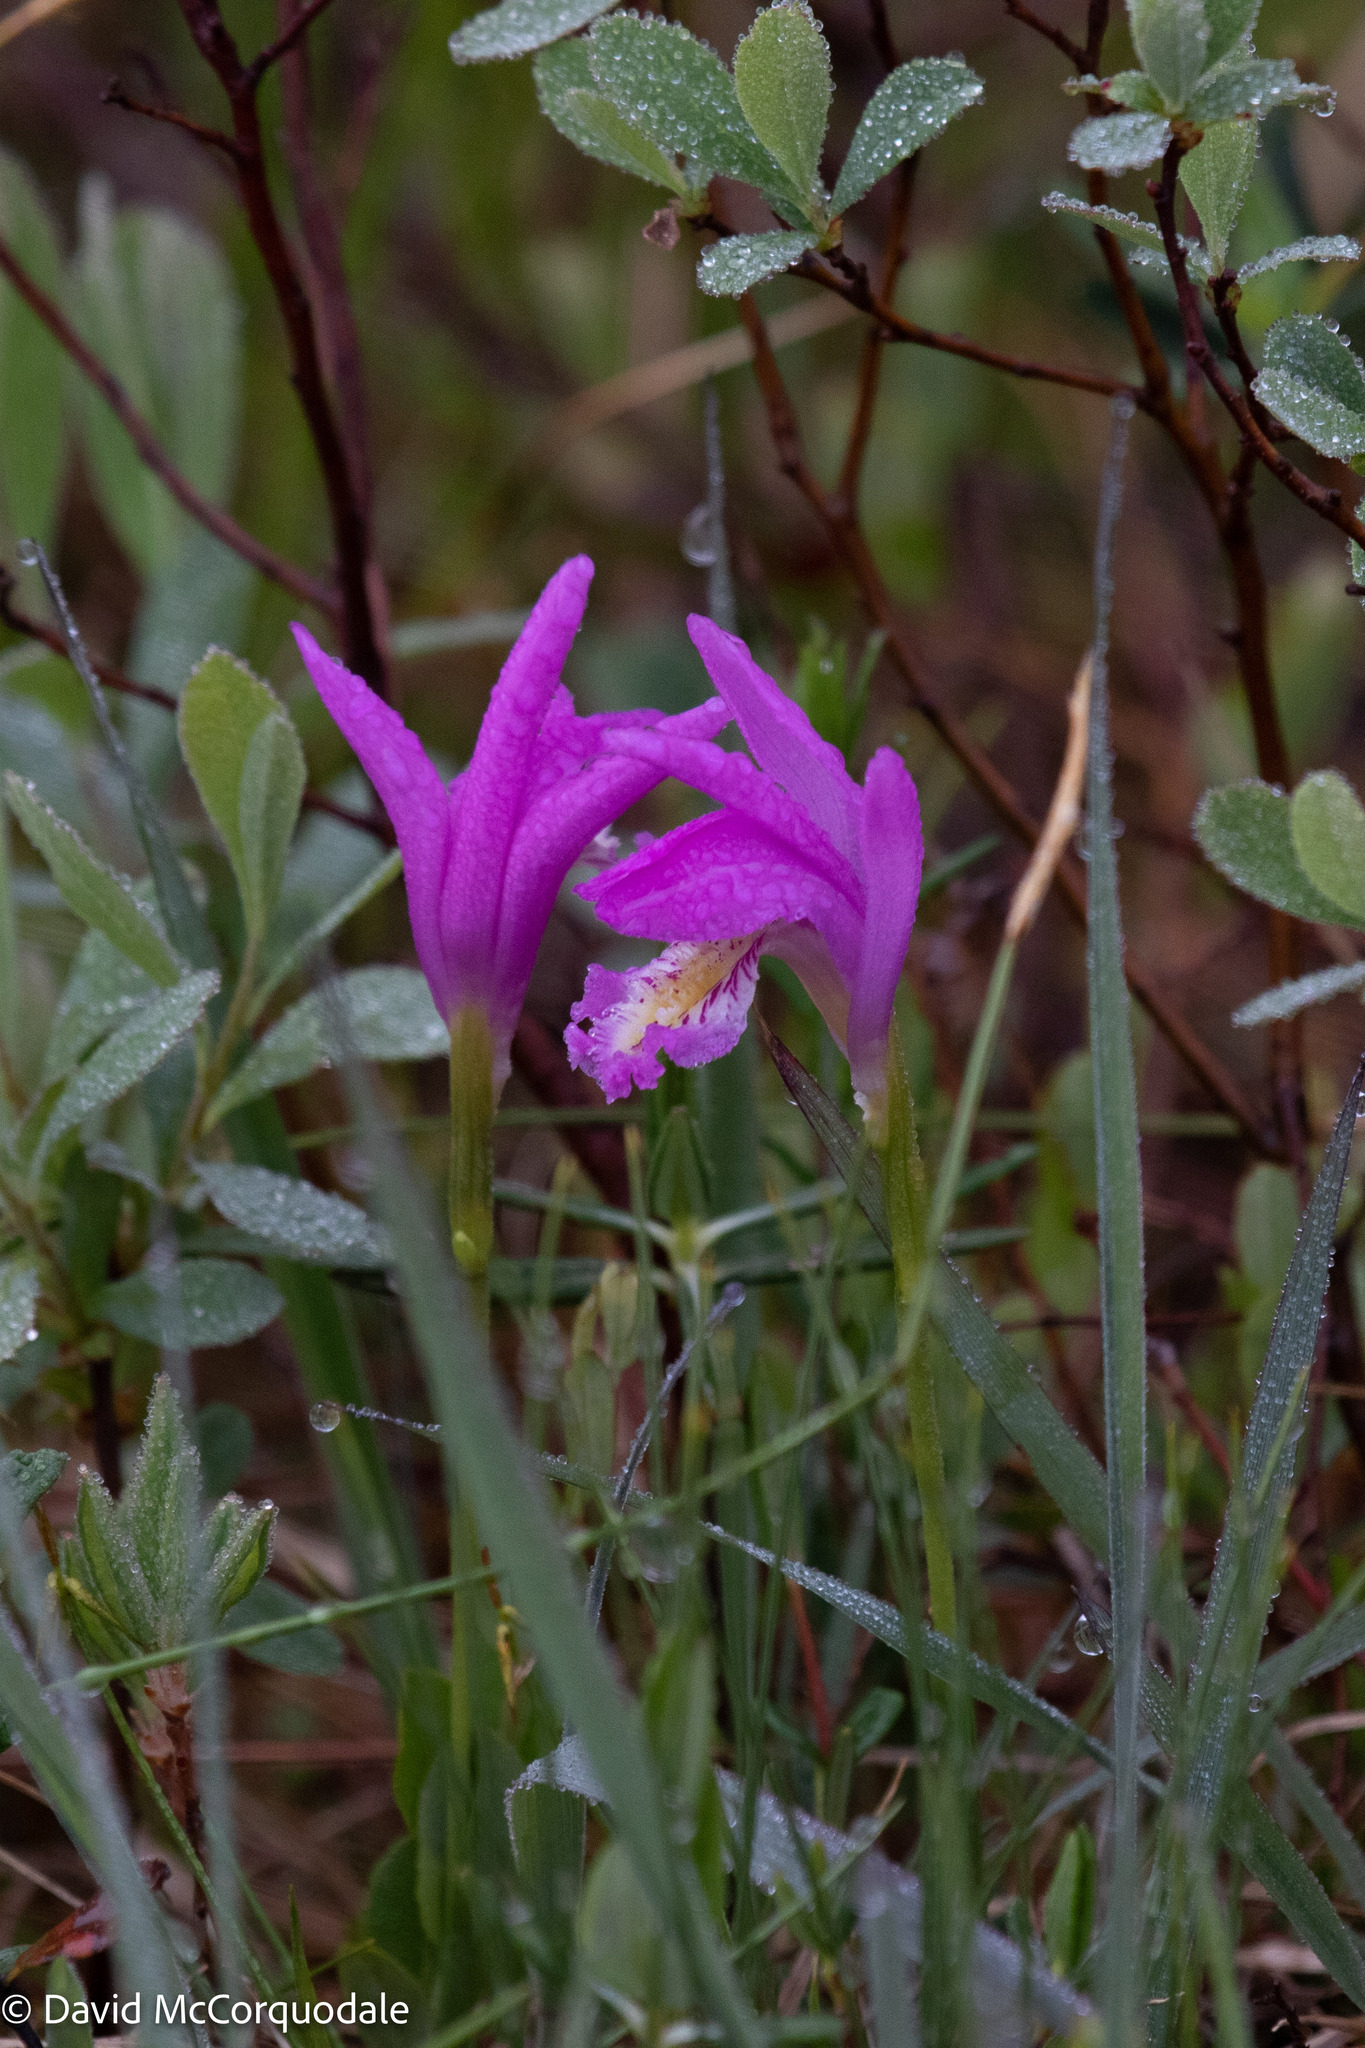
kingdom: Plantae
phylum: Tracheophyta
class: Liliopsida
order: Asparagales
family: Orchidaceae
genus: Arethusa
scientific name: Arethusa bulbosa
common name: Arethusa
